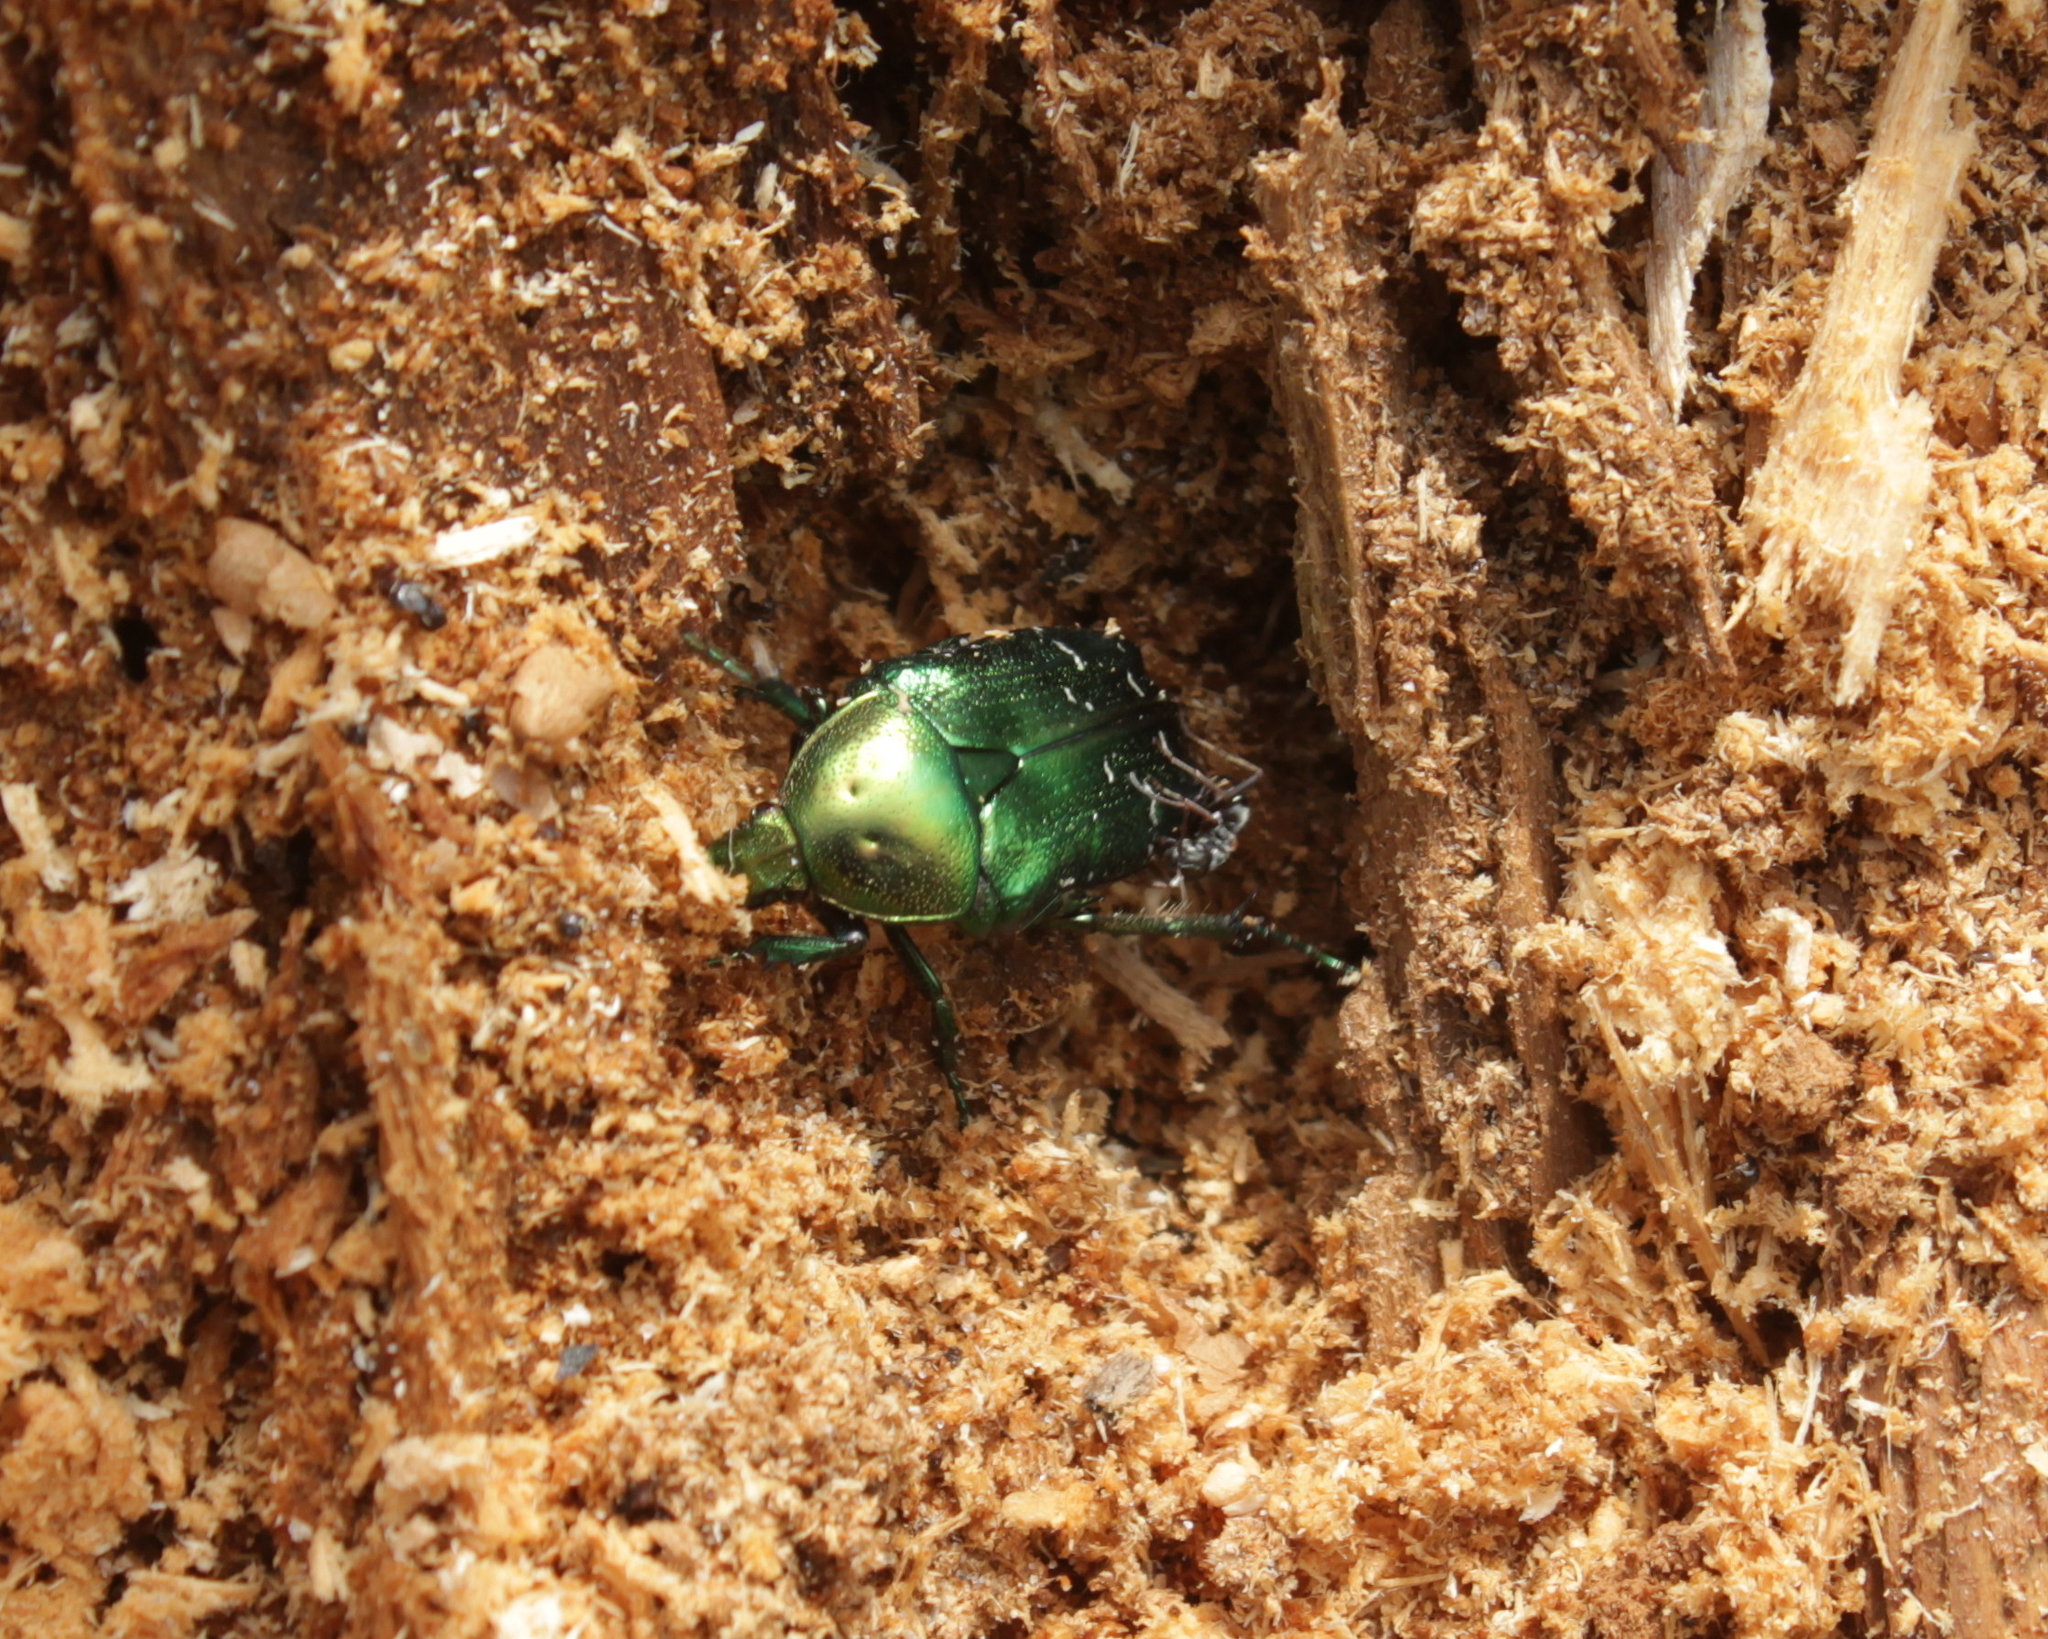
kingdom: Animalia
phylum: Arthropoda
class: Insecta
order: Coleoptera
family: Scarabaeidae
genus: Cetonia
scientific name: Cetonia aurata
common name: Rose chafer
